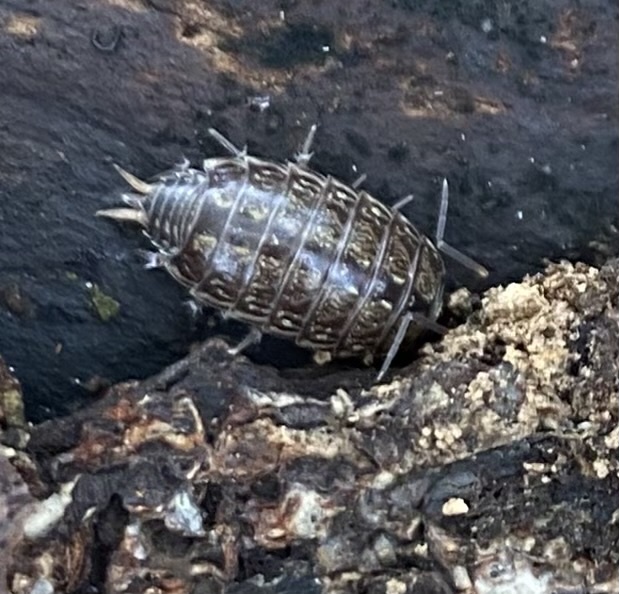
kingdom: Animalia
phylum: Arthropoda
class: Malacostraca
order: Isopoda
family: Philosciidae
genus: Philoscia
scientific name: Philoscia muscorum
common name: Common striped woodlouse
